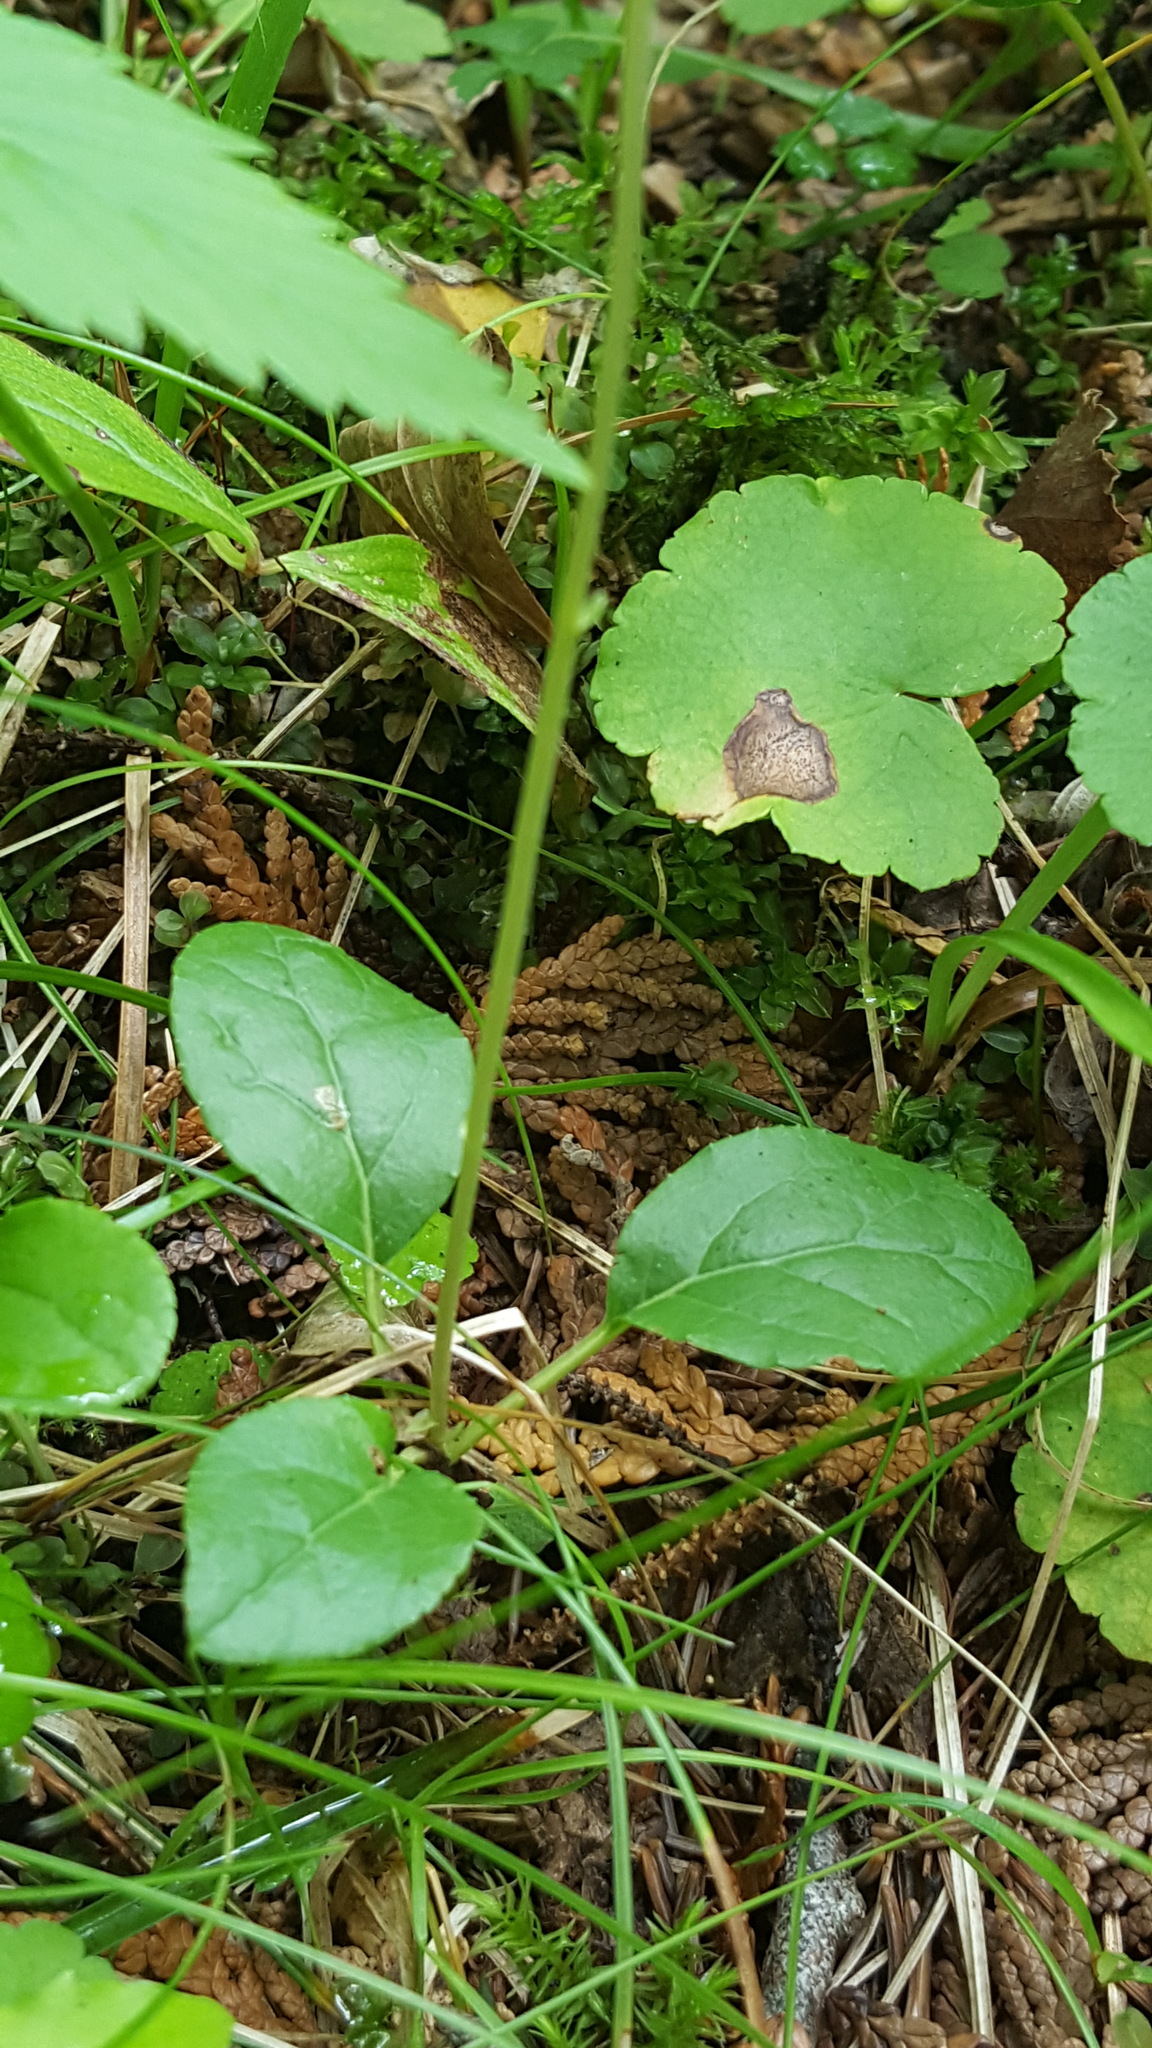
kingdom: Plantae
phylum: Tracheophyta
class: Magnoliopsida
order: Ericales
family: Ericaceae
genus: Orthilia
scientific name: Orthilia secunda
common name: One-sided orthilia
